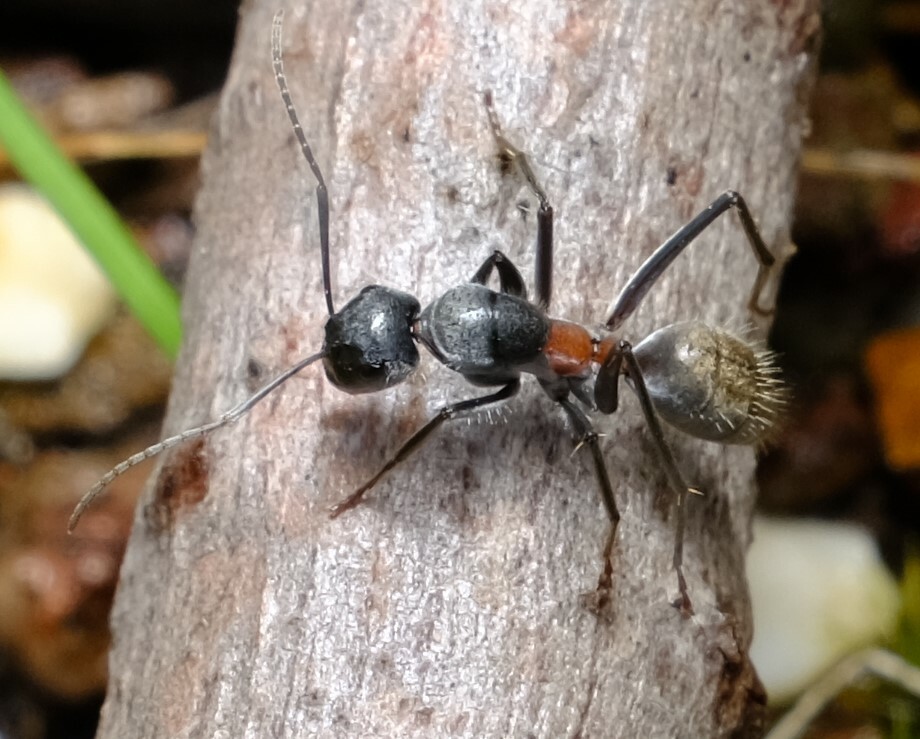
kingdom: Animalia
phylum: Arthropoda
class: Insecta
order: Hymenoptera
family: Formicidae
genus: Camponotus
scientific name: Camponotus pawseyi
